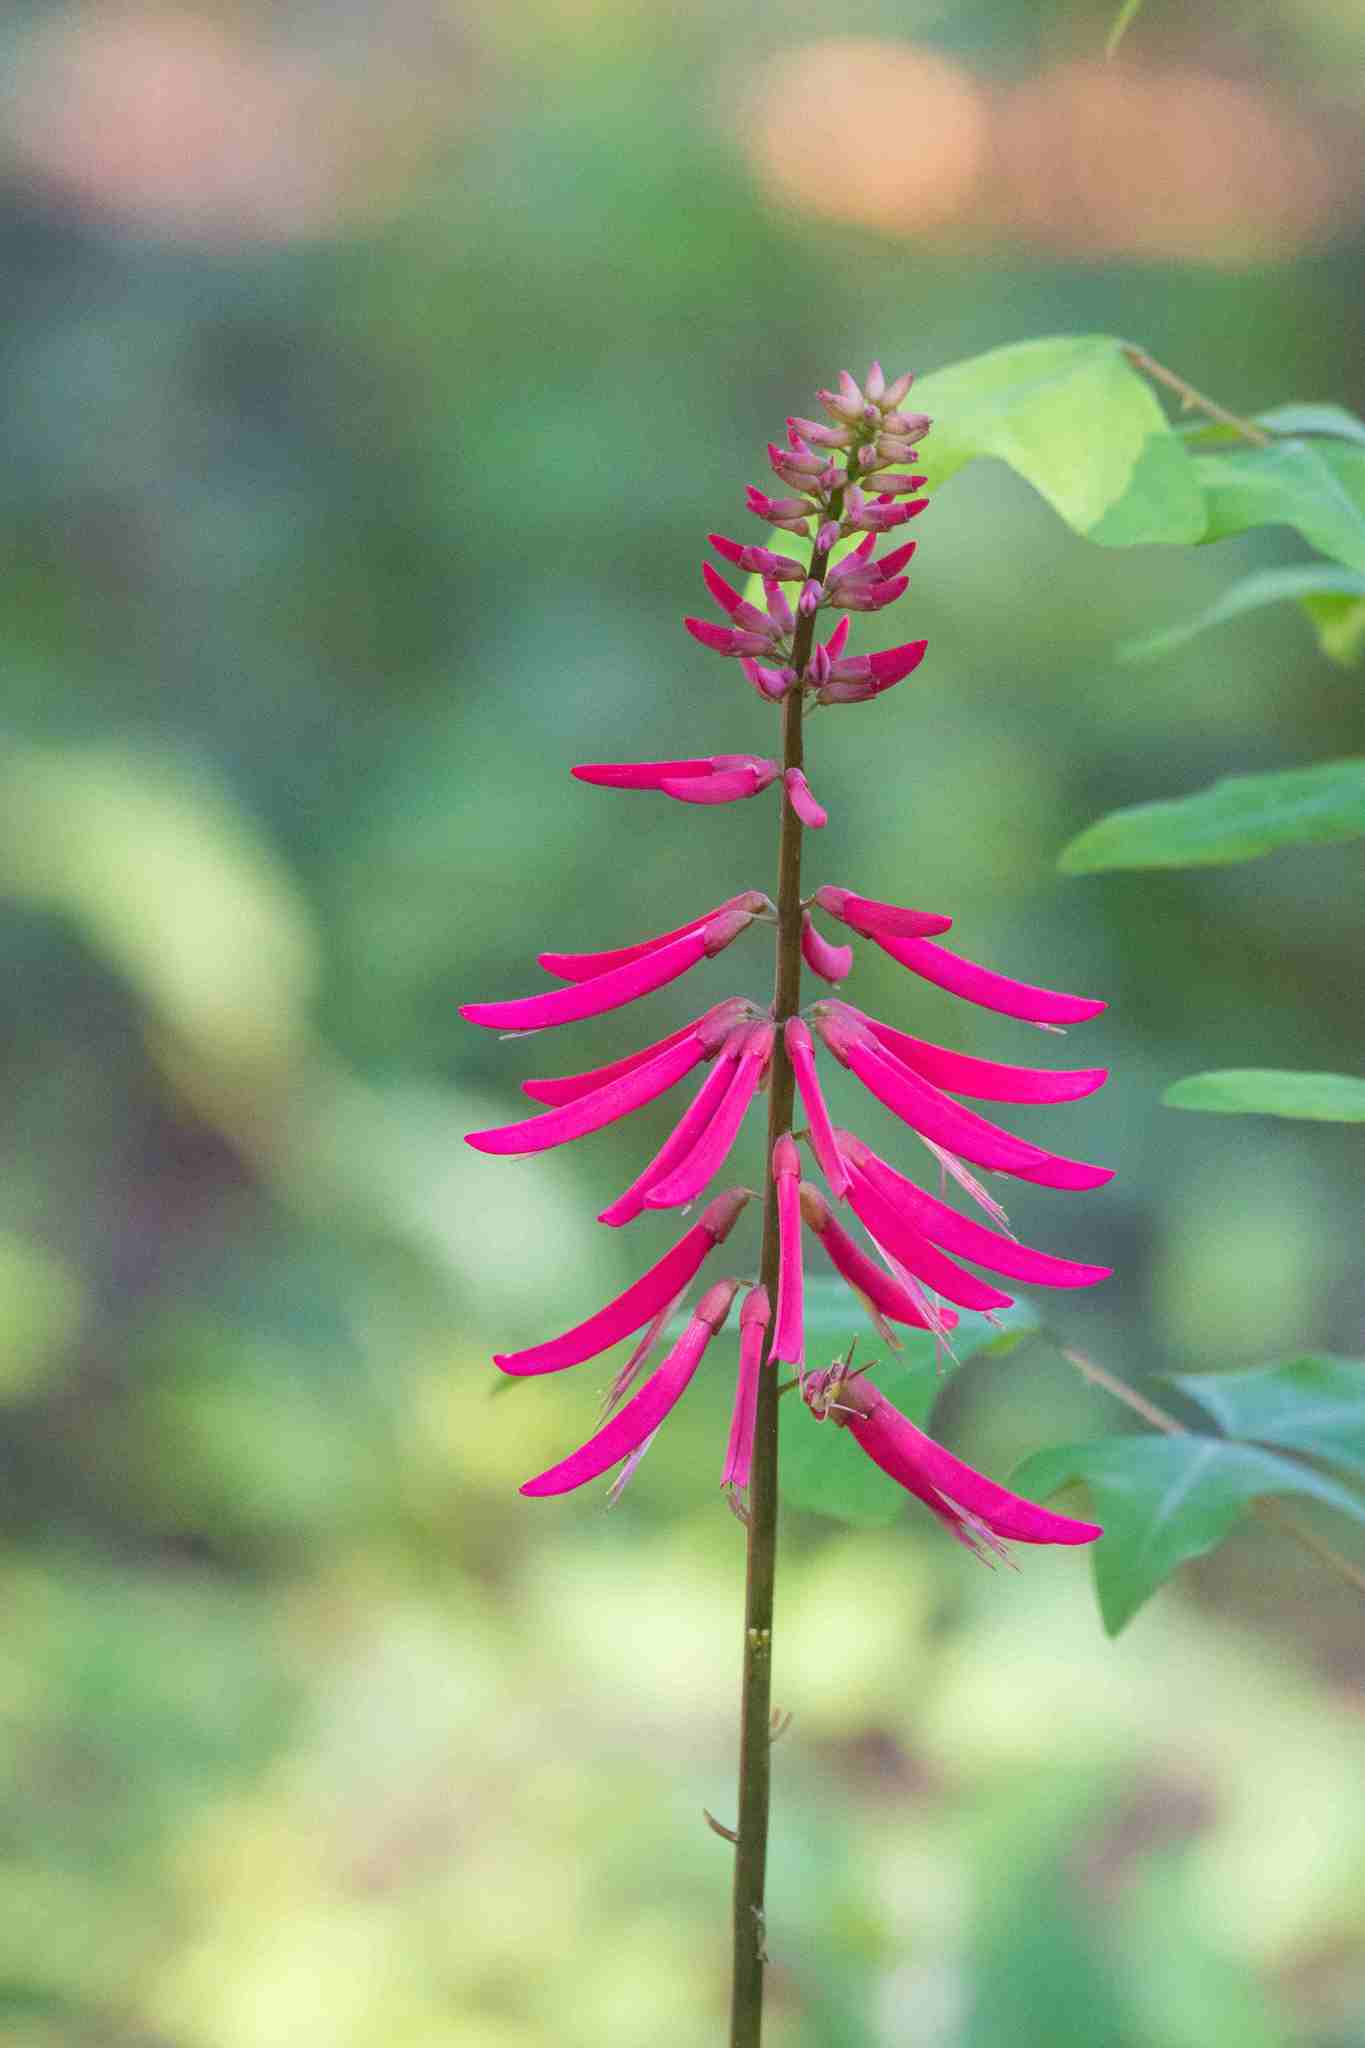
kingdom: Plantae
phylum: Tracheophyta
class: Magnoliopsida
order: Fabales
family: Fabaceae
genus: Erythrina
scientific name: Erythrina herbacea
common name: Coral-bean
